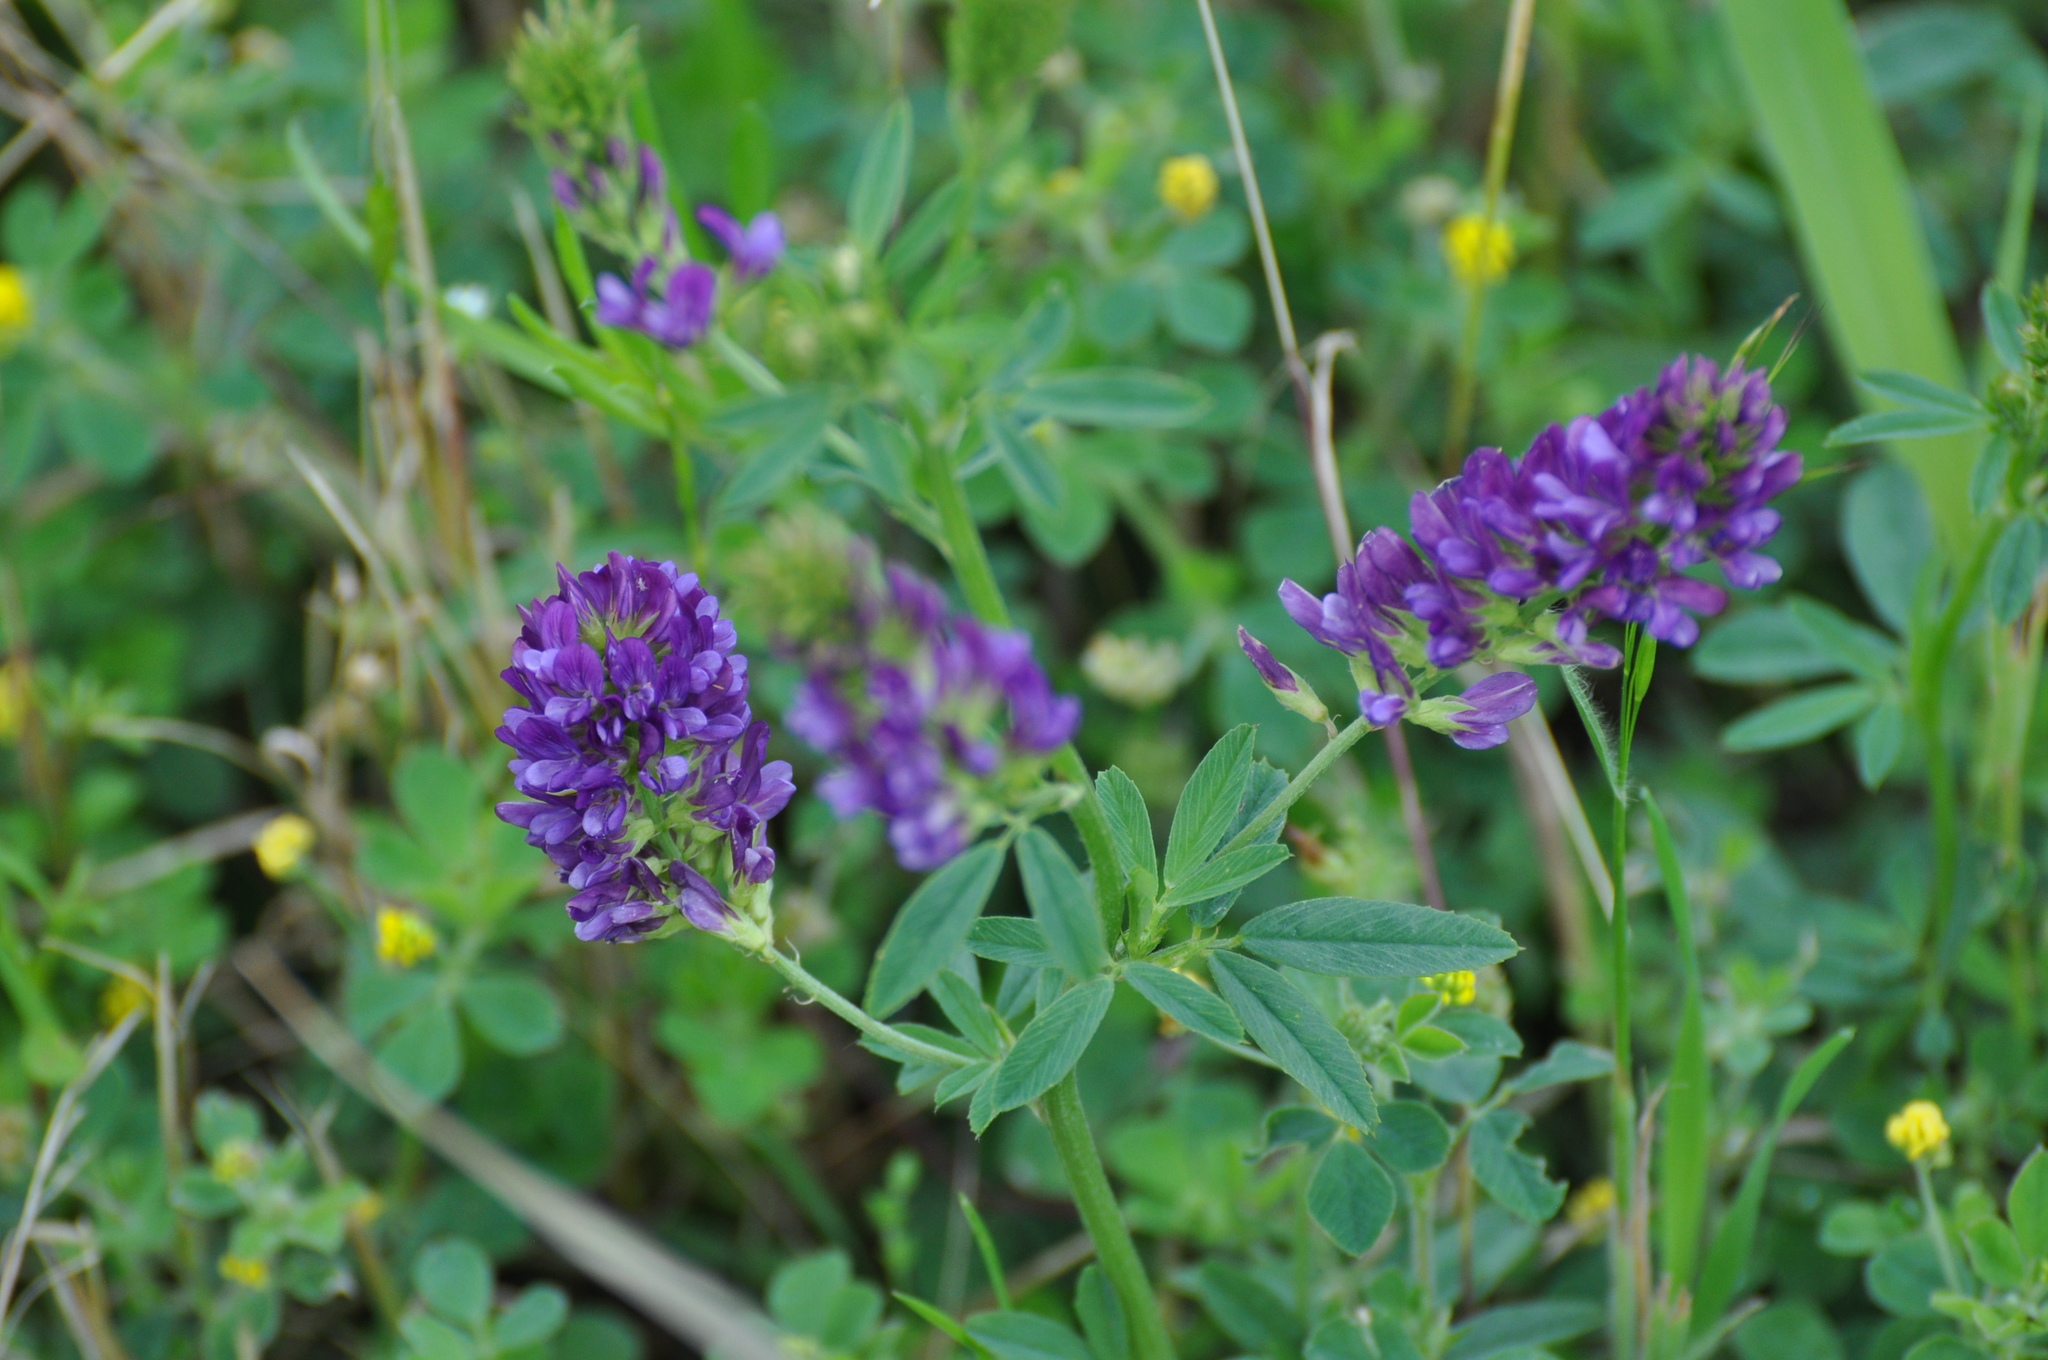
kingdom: Plantae
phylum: Tracheophyta
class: Magnoliopsida
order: Fabales
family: Fabaceae
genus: Medicago
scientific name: Medicago sativa
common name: Alfalfa
